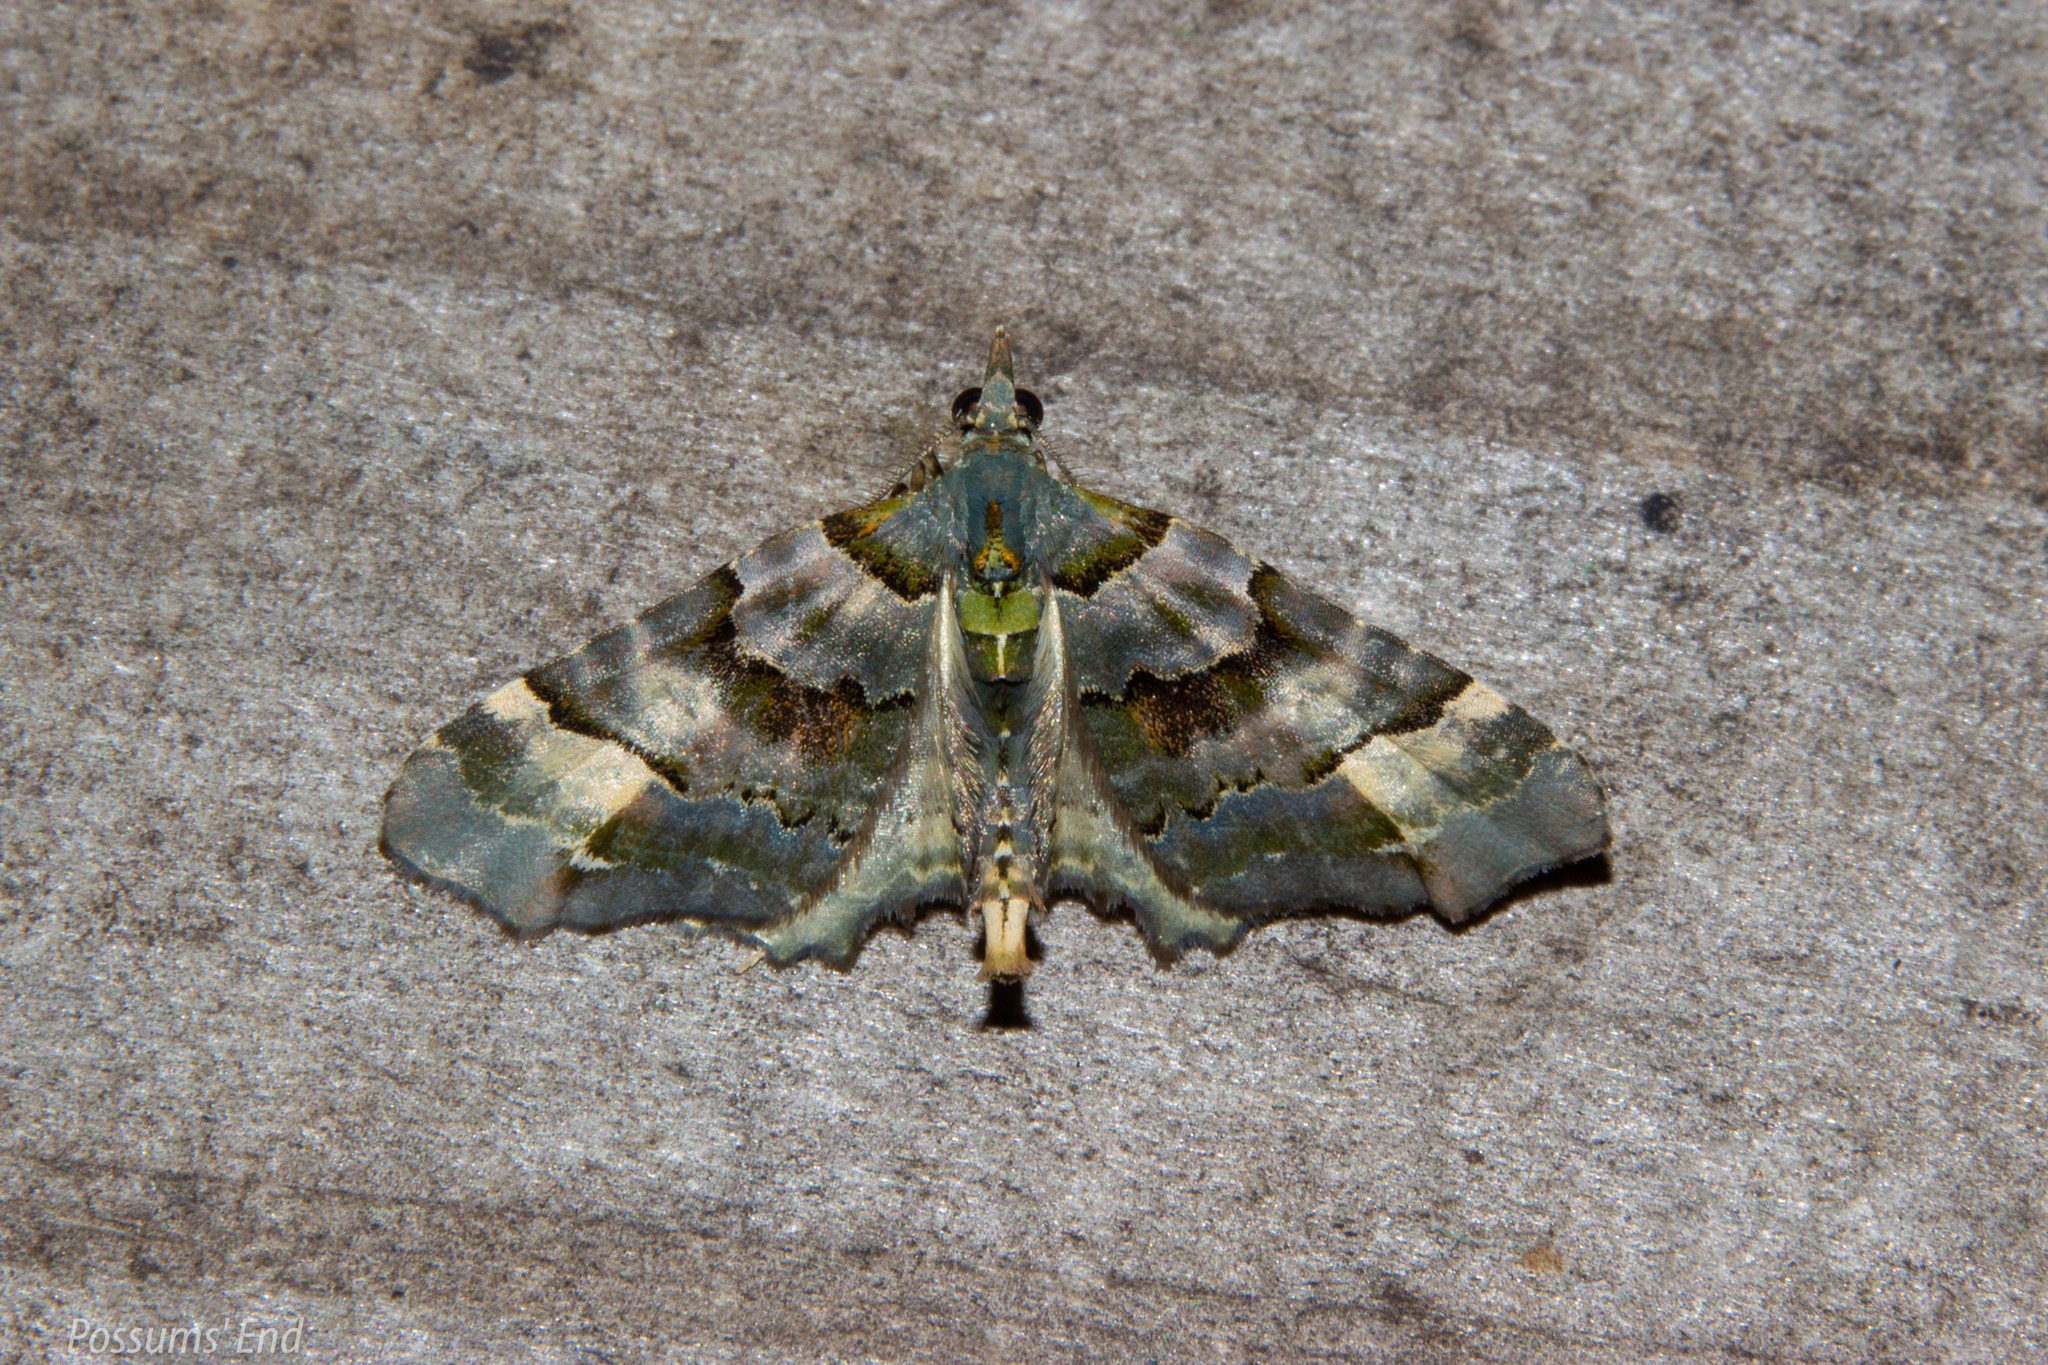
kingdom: Animalia
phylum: Arthropoda
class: Insecta
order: Lepidoptera
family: Geometridae
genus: Elvia
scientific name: Elvia glaucata
